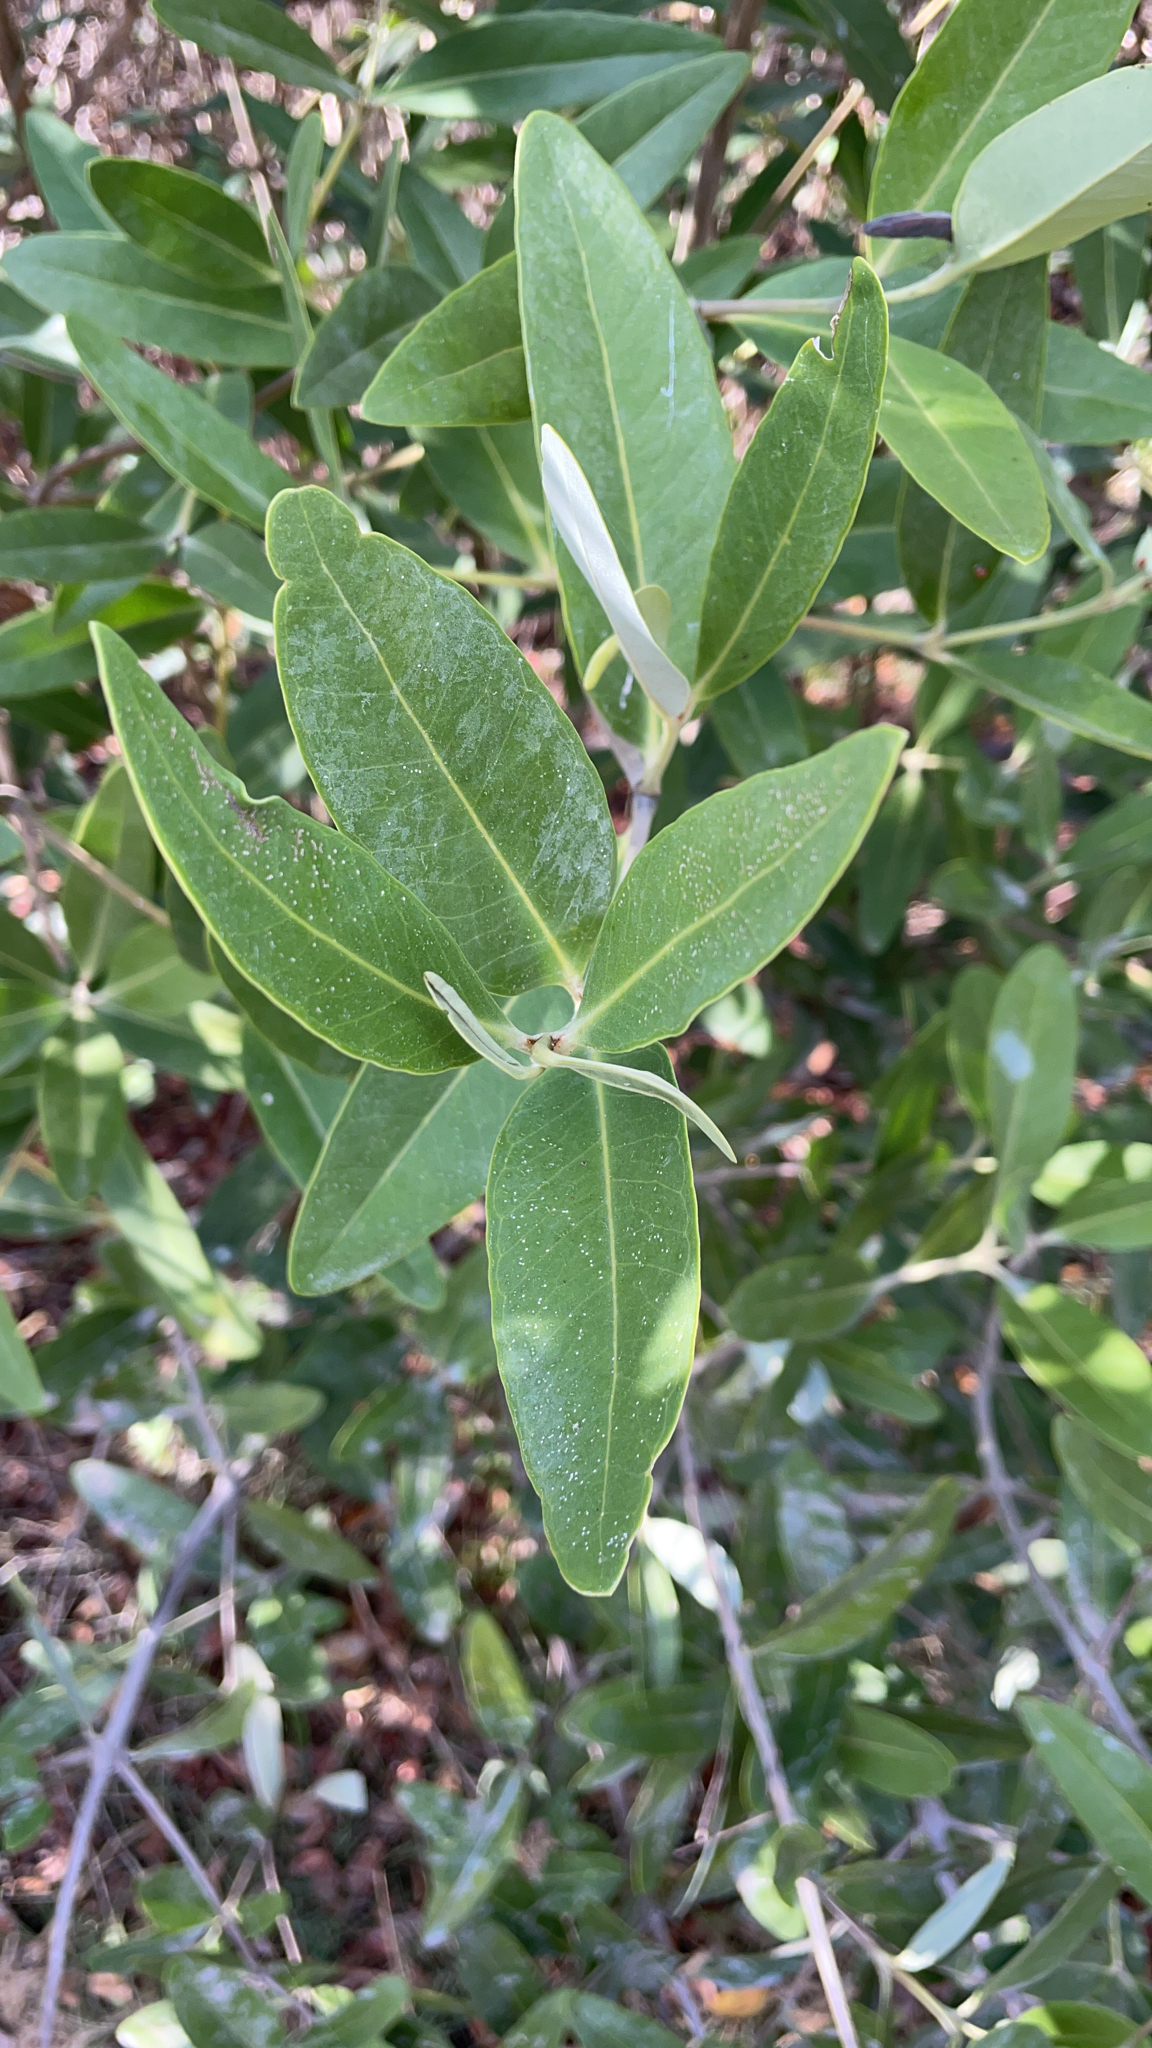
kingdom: Plantae
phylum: Tracheophyta
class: Magnoliopsida
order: Lamiales
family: Acanthaceae
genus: Avicennia
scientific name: Avicennia germinans
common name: Black mangrove
